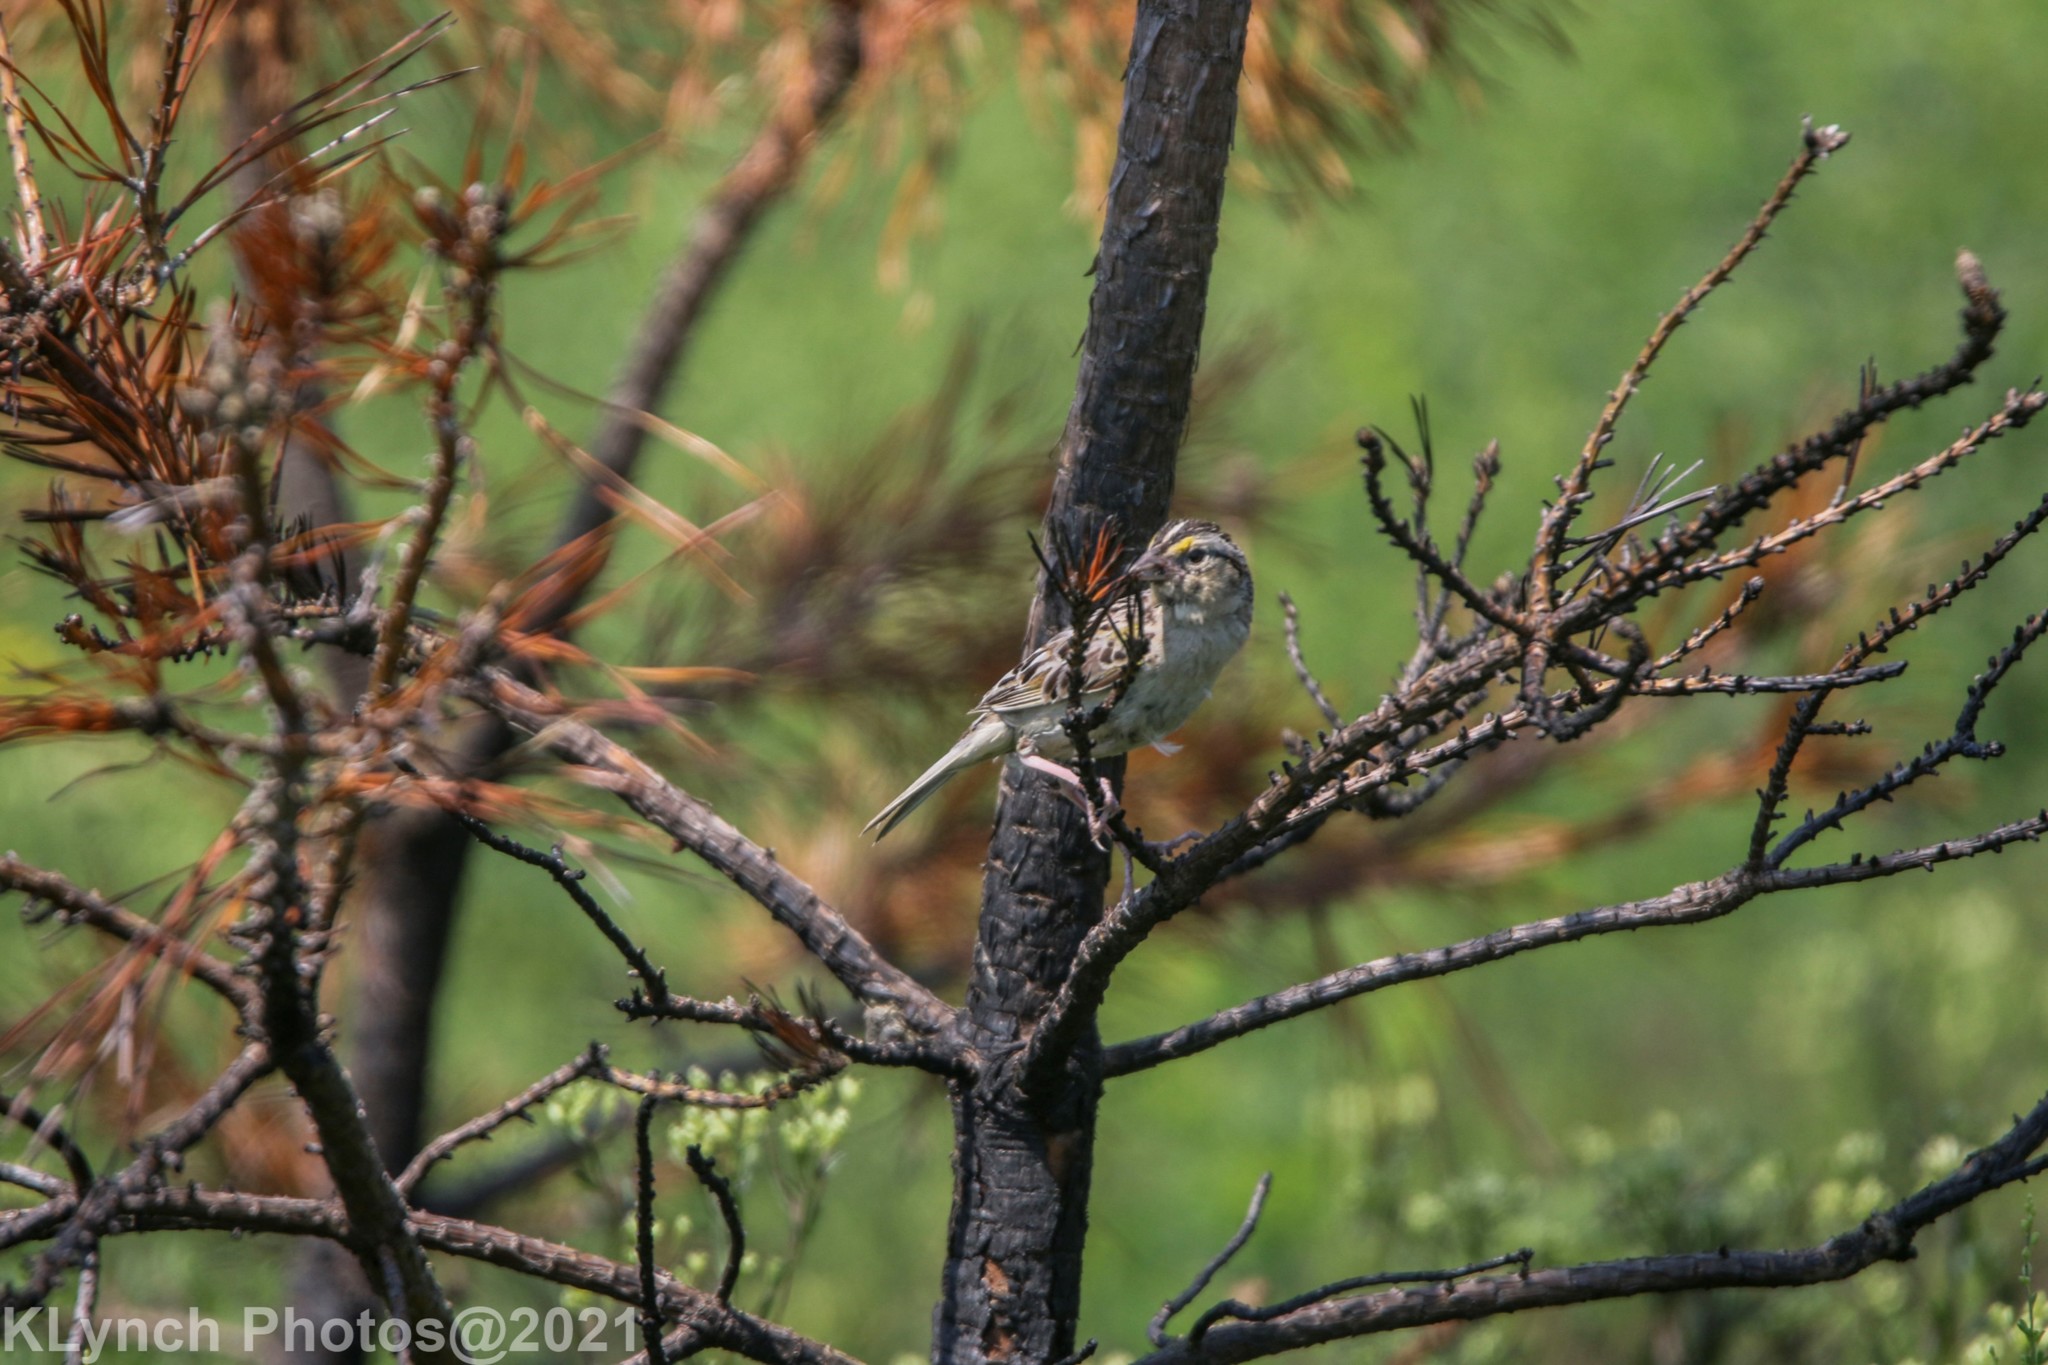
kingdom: Animalia
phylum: Chordata
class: Aves
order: Passeriformes
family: Passerellidae
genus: Ammodramus
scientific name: Ammodramus savannarum
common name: Grasshopper sparrow
